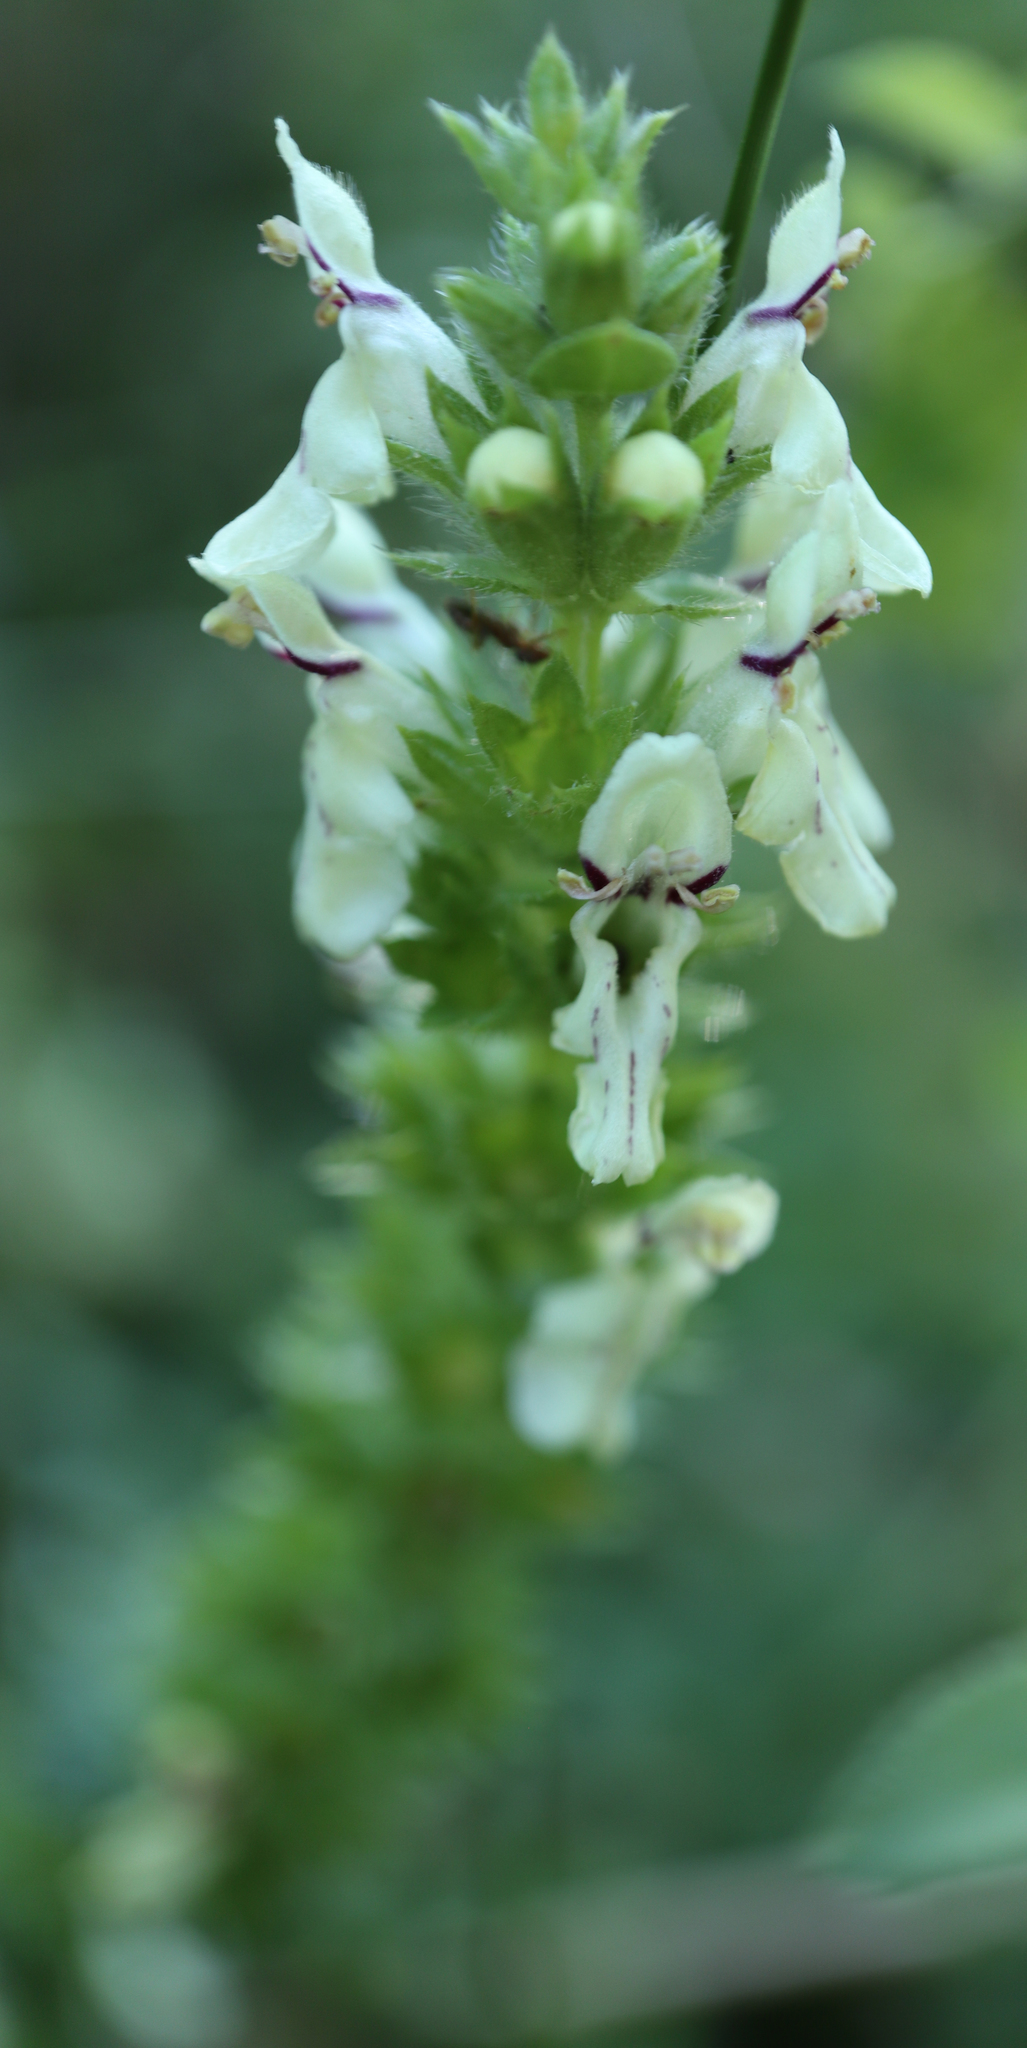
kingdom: Plantae
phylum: Tracheophyta
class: Magnoliopsida
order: Lamiales
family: Lamiaceae
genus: Stachys
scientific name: Stachys recta
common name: Perennial yellow-woundwort
